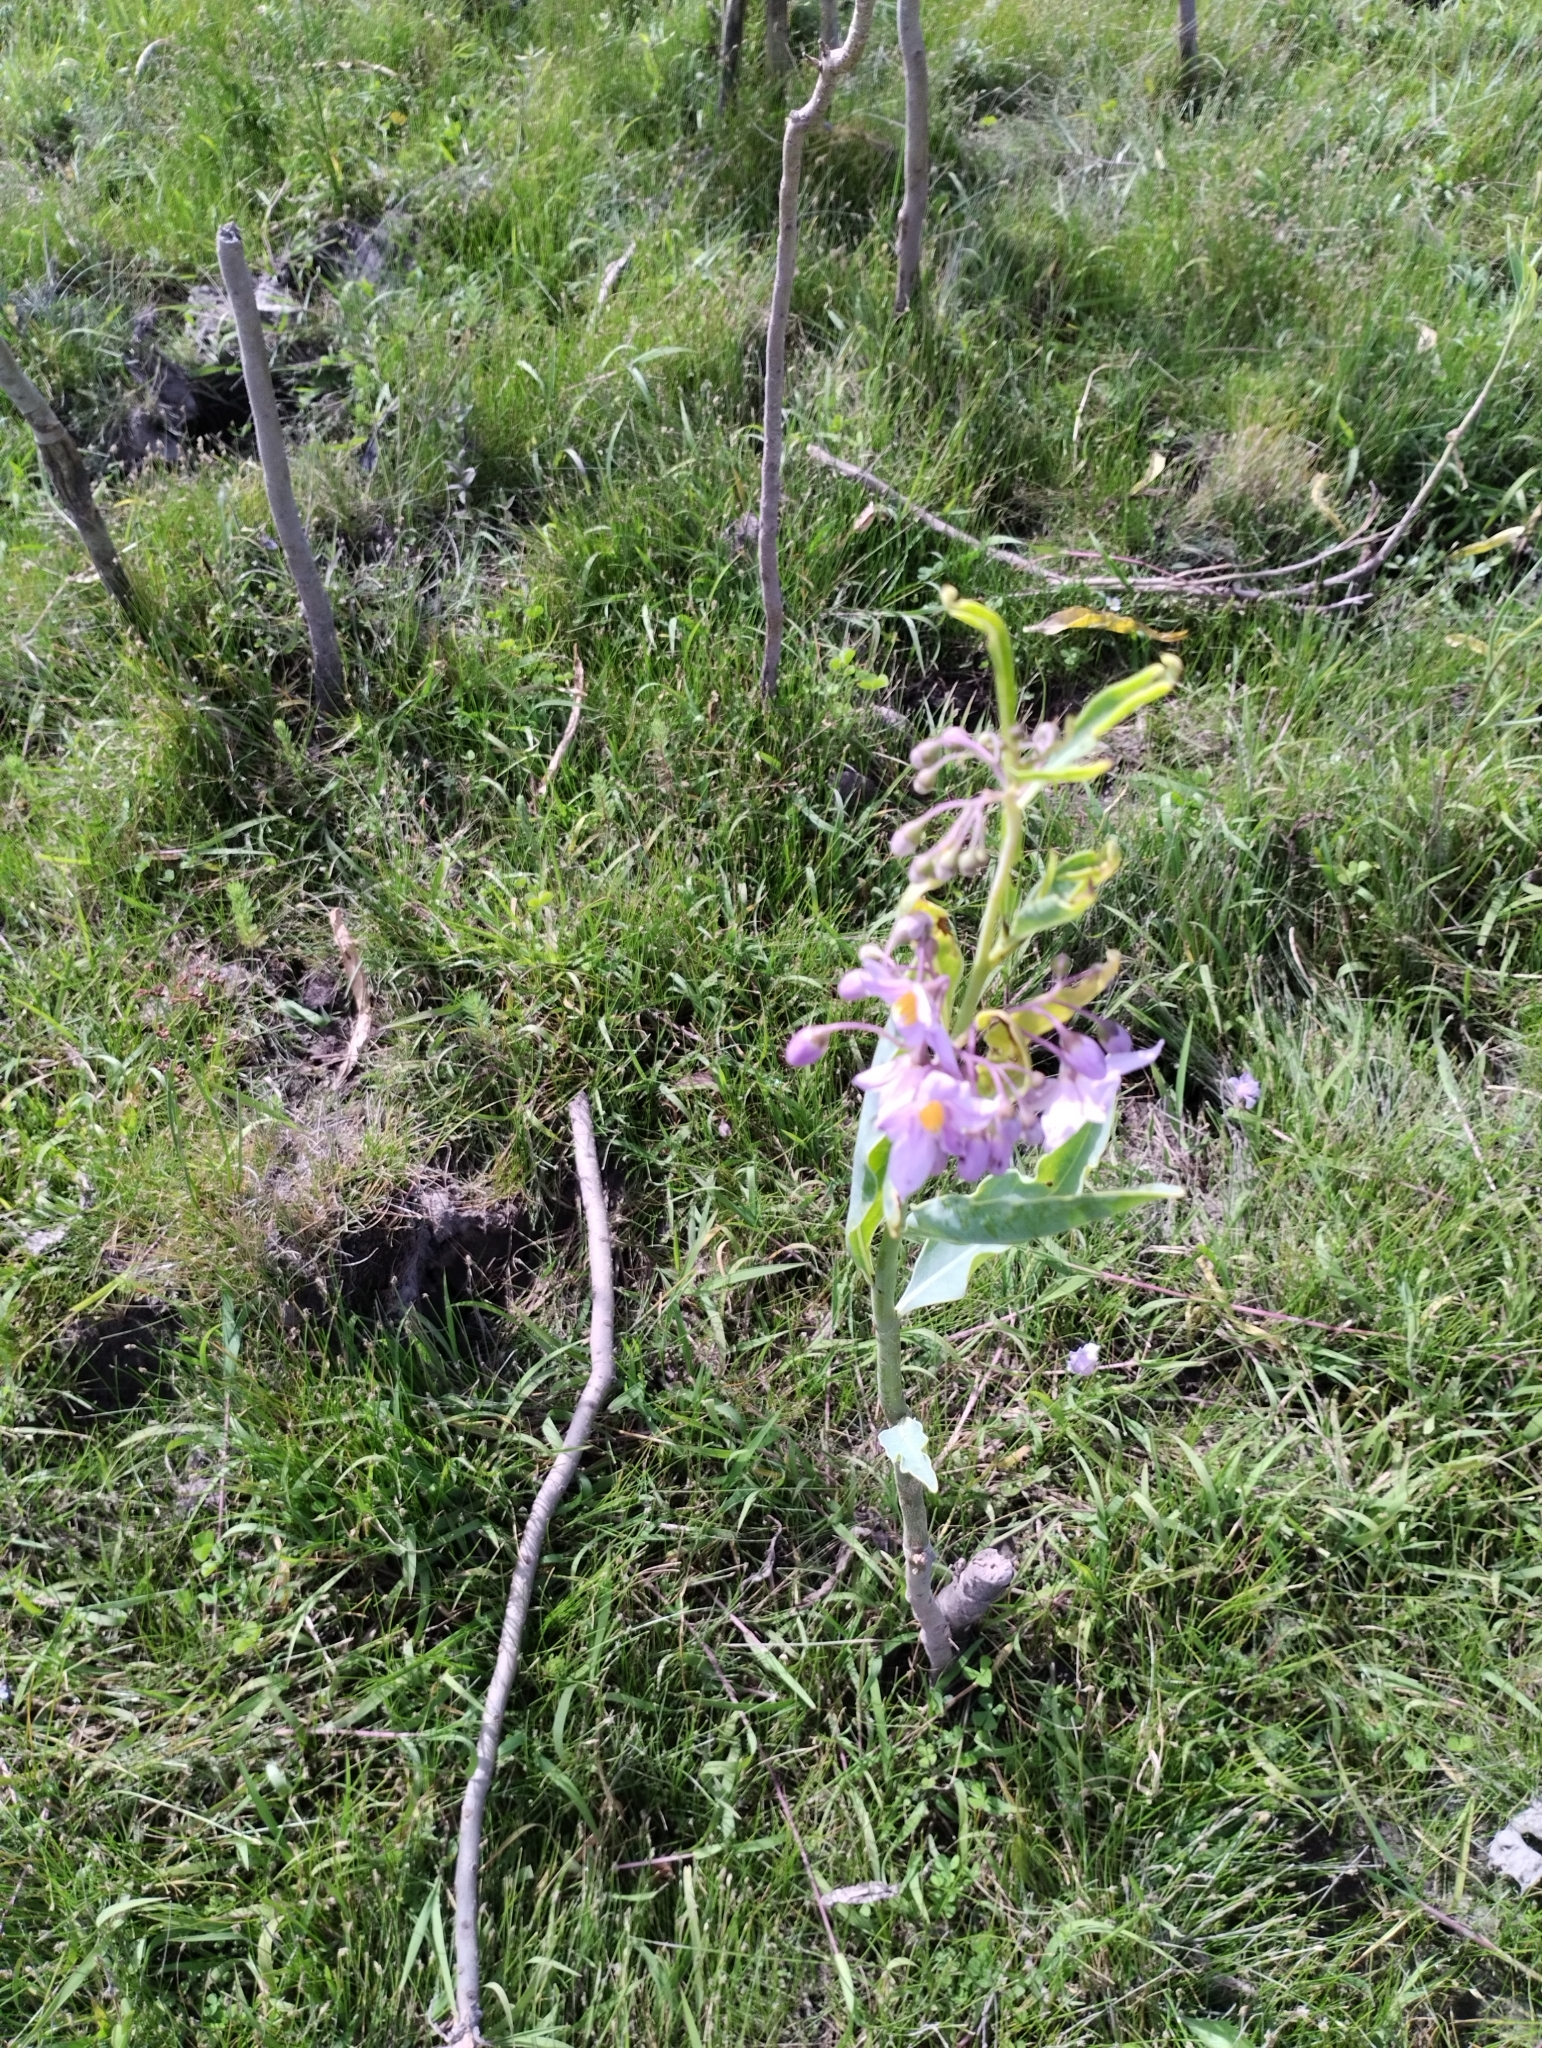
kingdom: Plantae
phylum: Tracheophyta
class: Magnoliopsida
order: Solanales
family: Solanaceae
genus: Solanum
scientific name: Solanum glaucophyllum
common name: Waxyleaf nightshade
